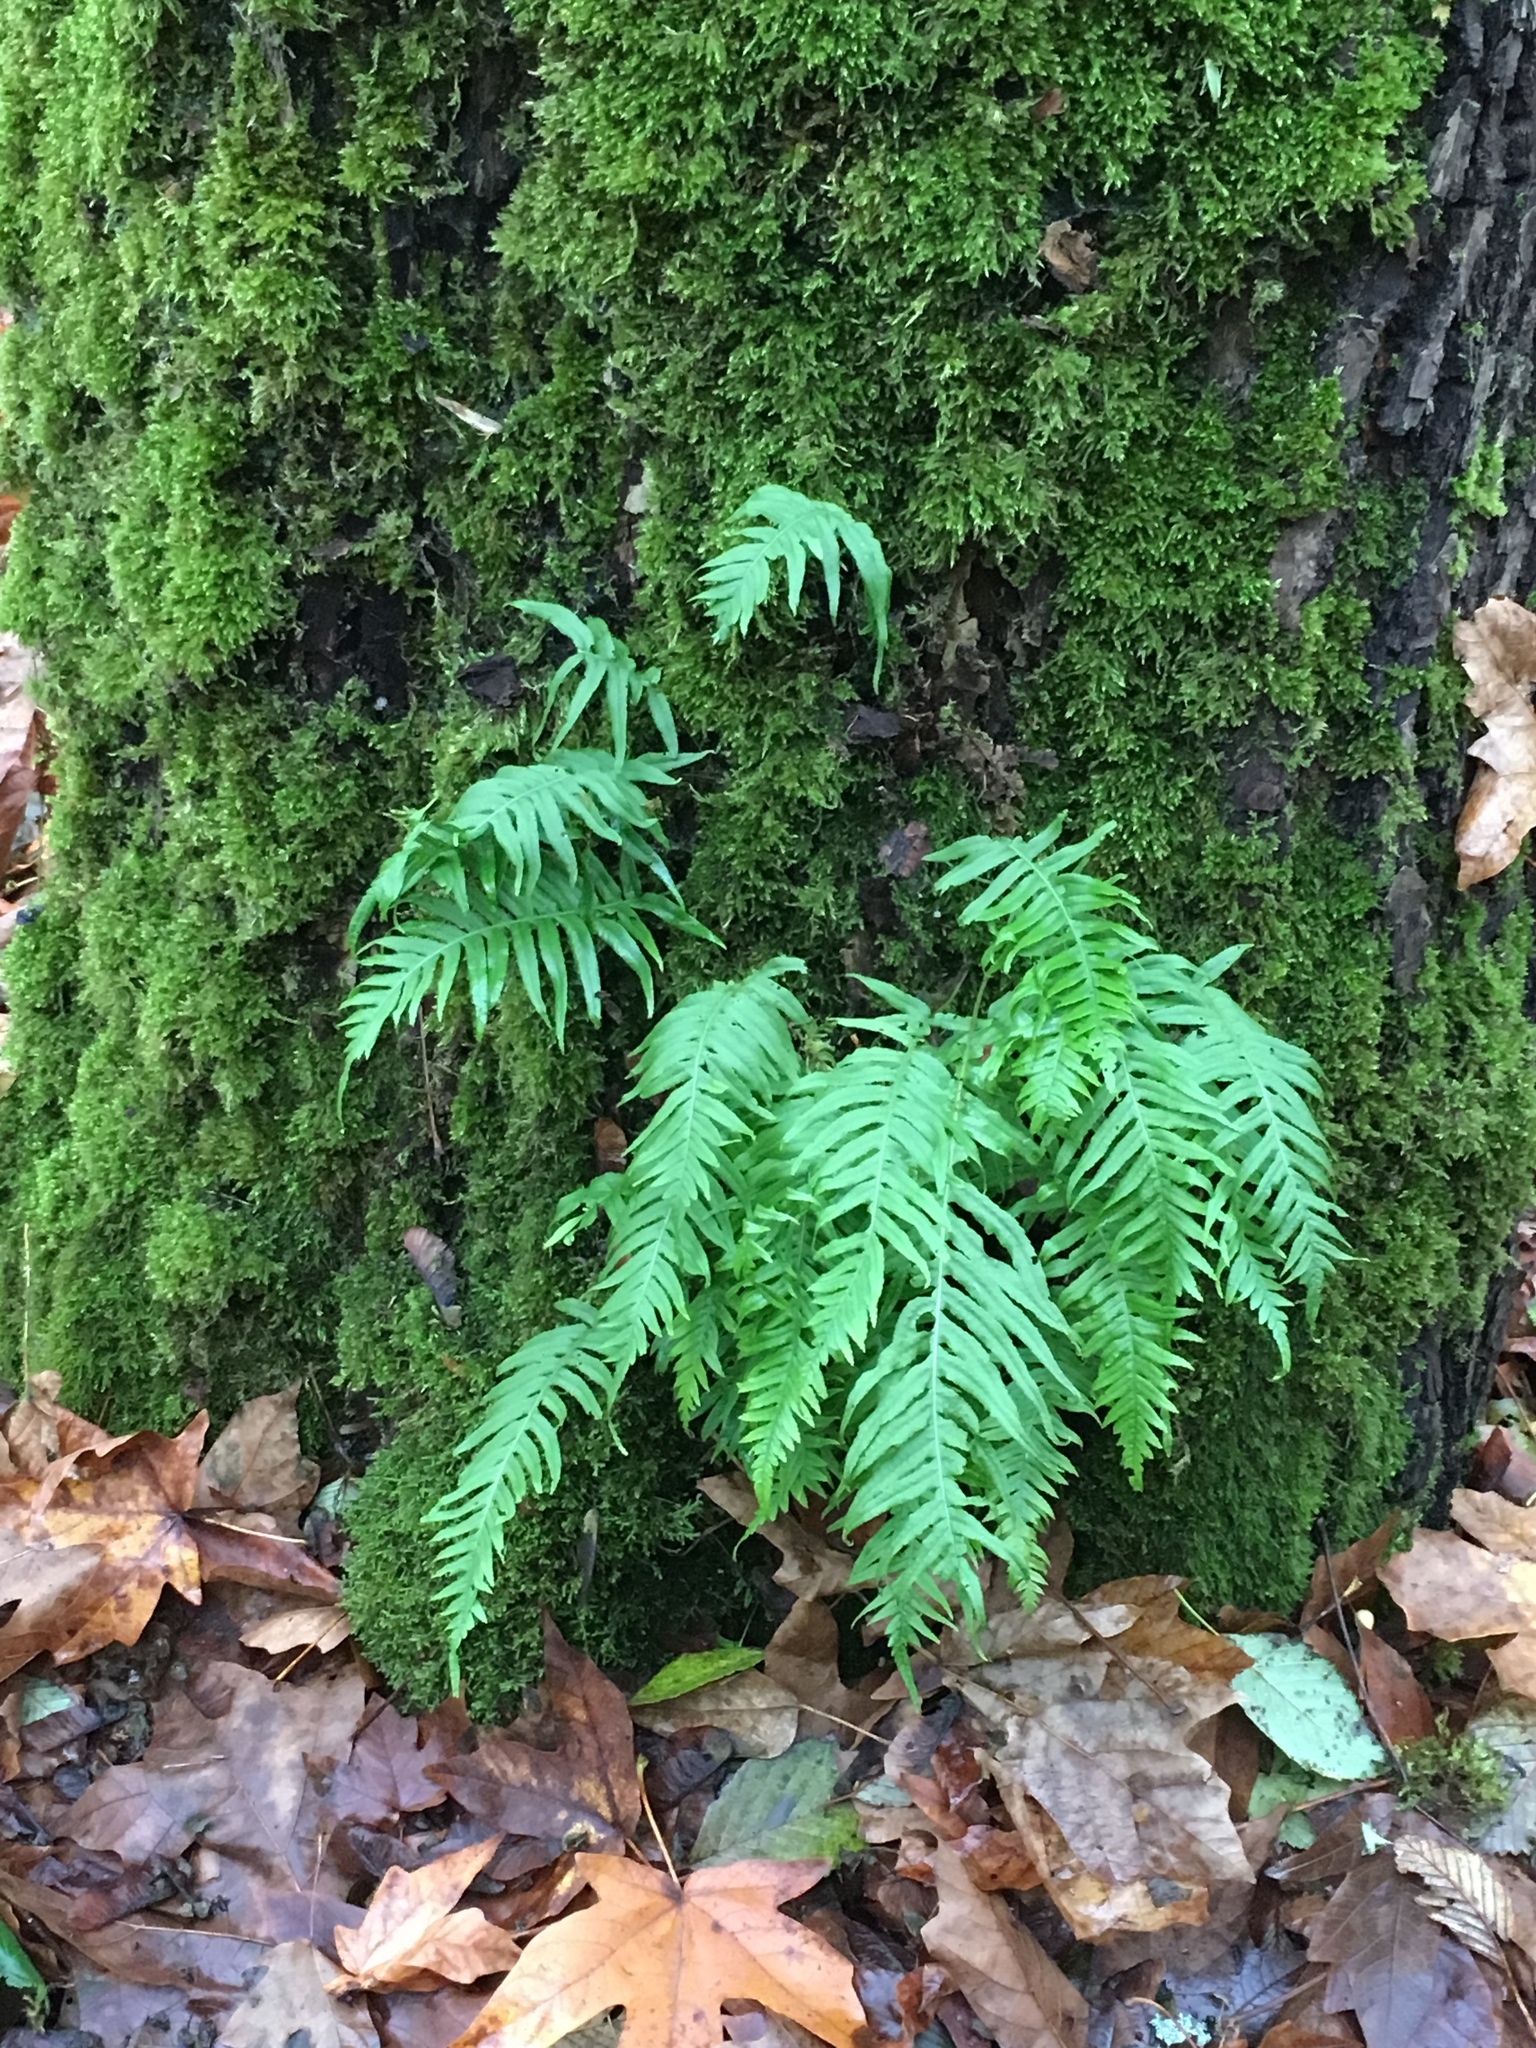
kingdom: Plantae
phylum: Tracheophyta
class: Polypodiopsida
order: Polypodiales
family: Polypodiaceae
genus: Polypodium
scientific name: Polypodium glycyrrhiza
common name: Licorice fern
